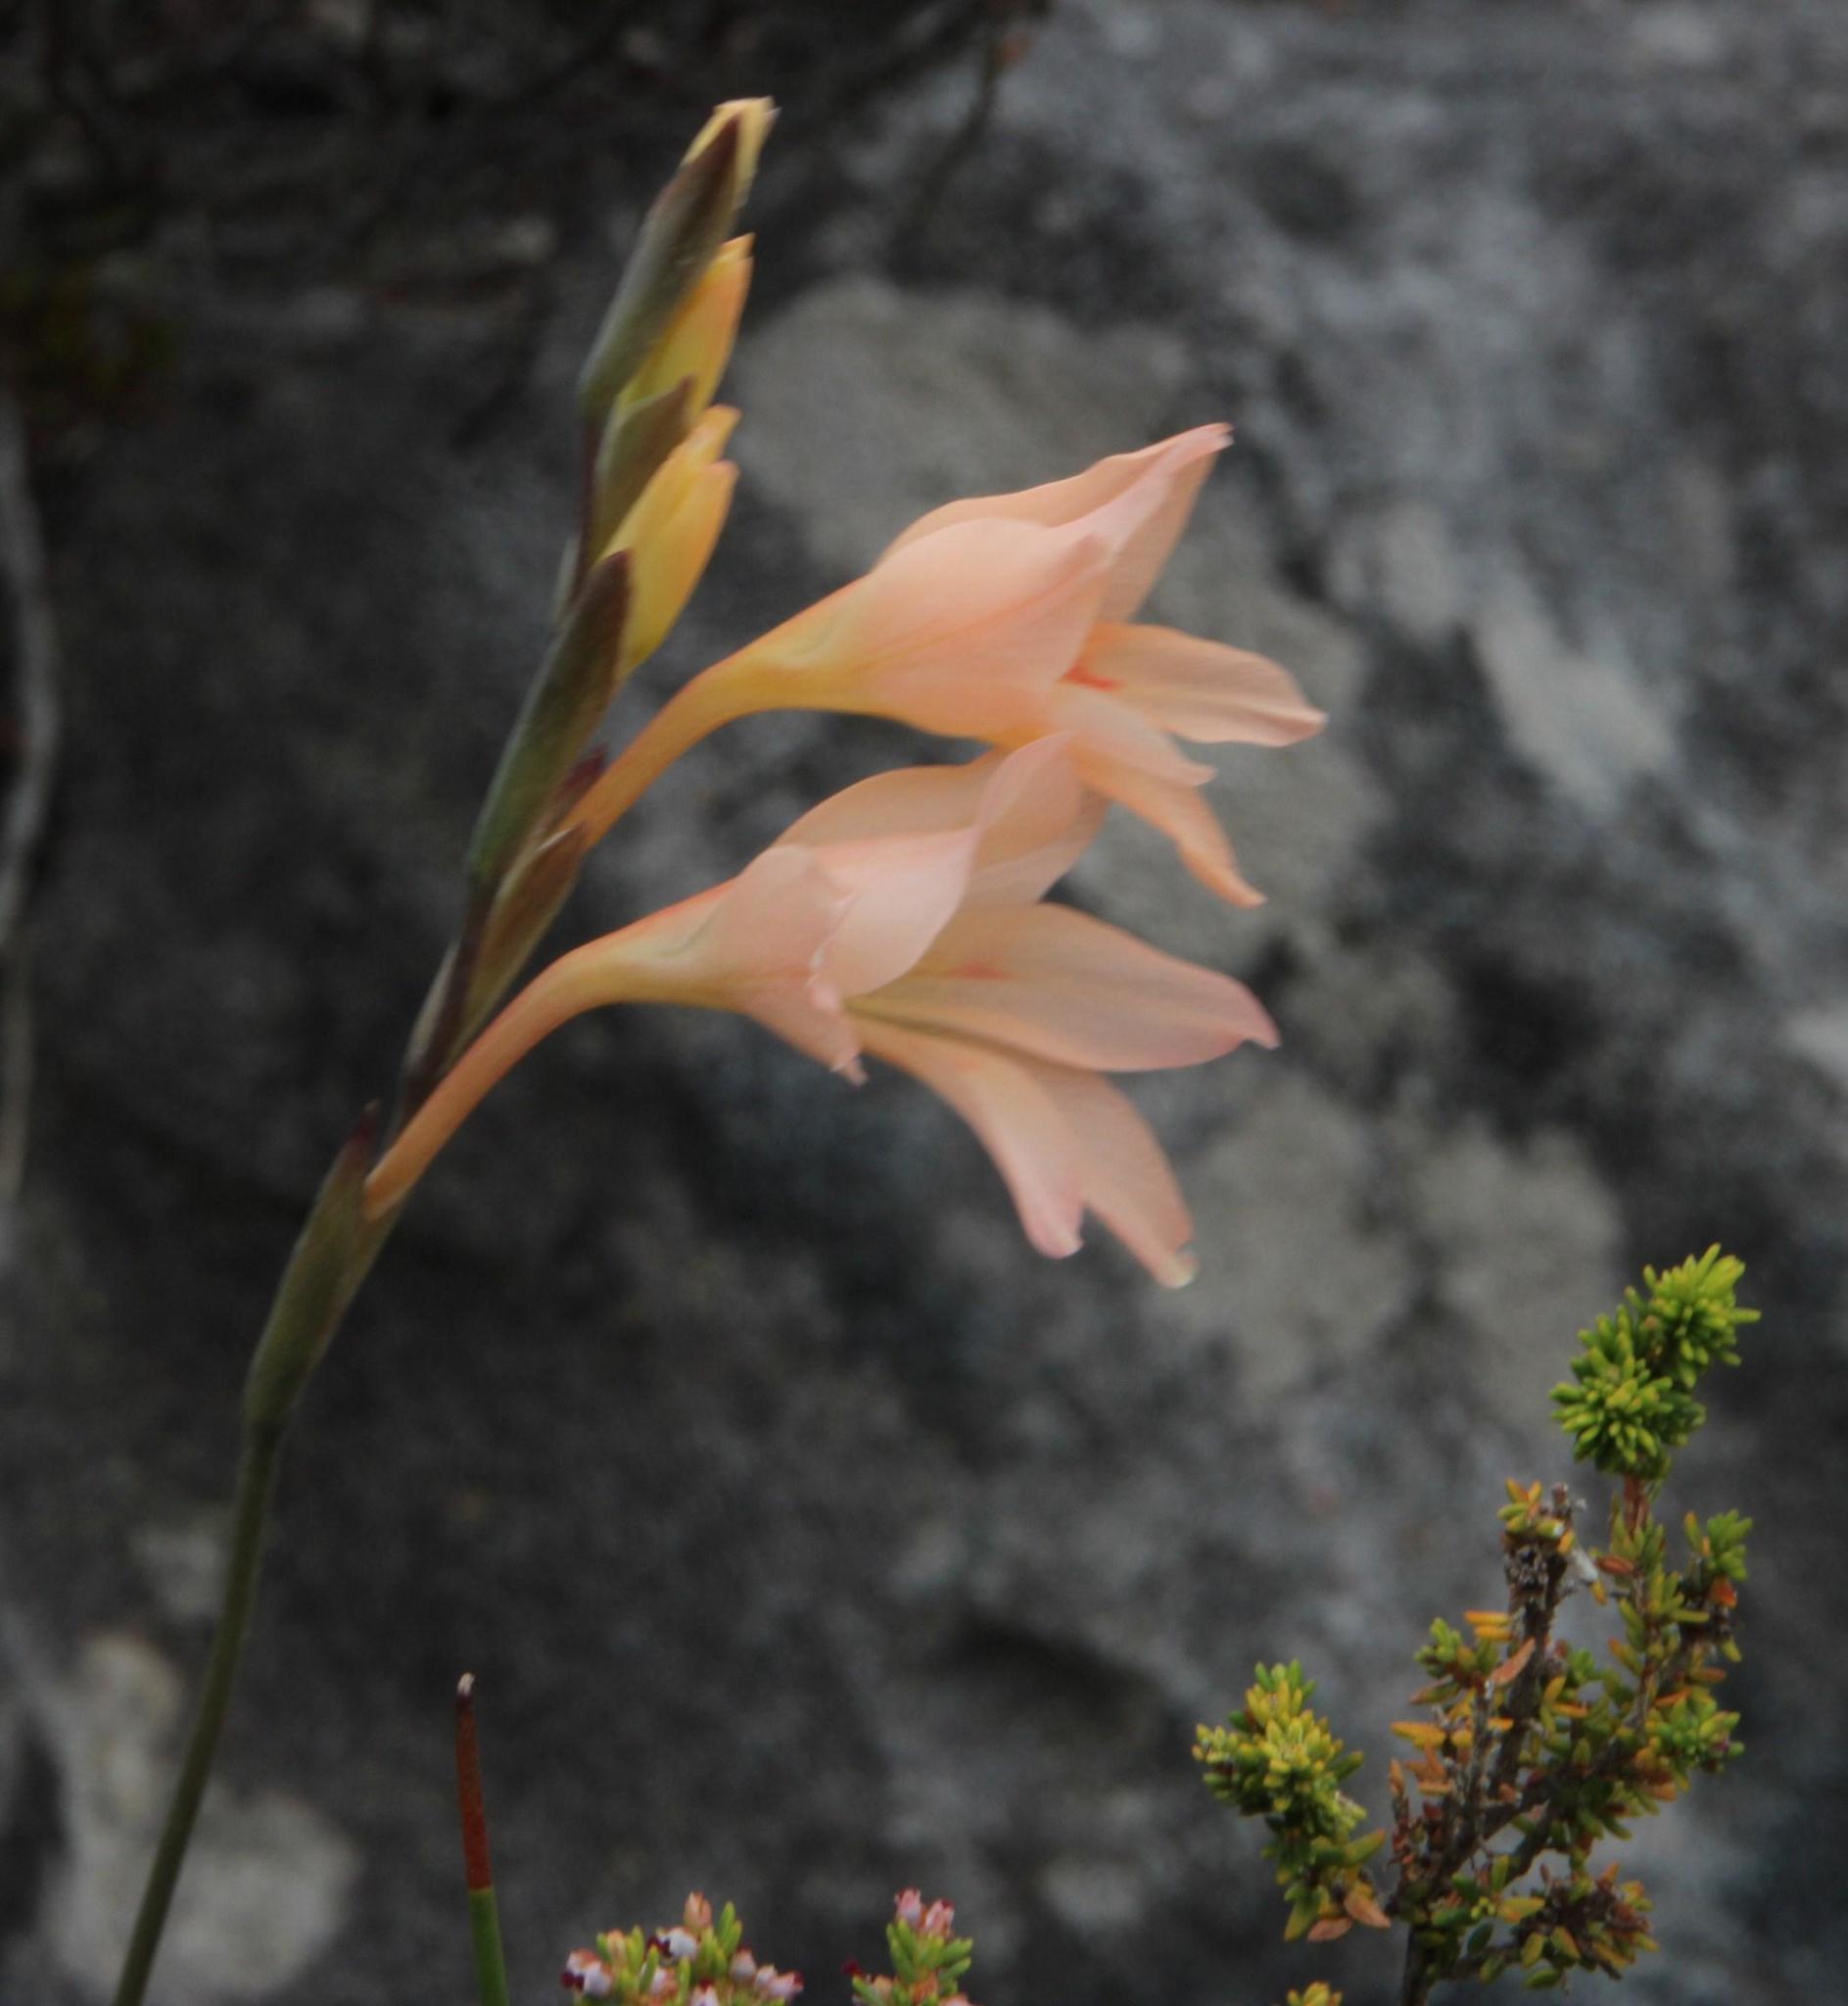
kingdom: Plantae
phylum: Tracheophyta
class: Liliopsida
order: Asparagales
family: Iridaceae
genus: Gladiolus
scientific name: Gladiolus monticola
